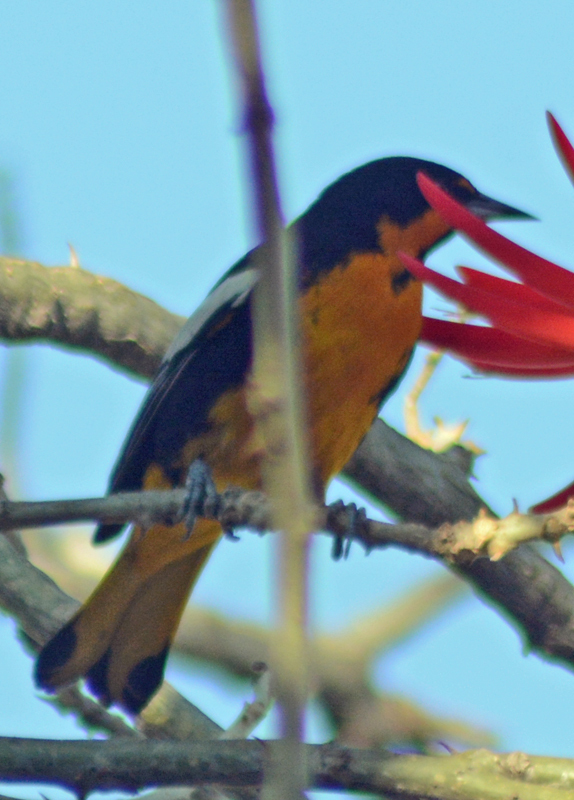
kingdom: Animalia
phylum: Chordata
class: Aves
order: Passeriformes
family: Icteridae
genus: Icterus
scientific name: Icterus abeillei
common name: Black-backed oriole
